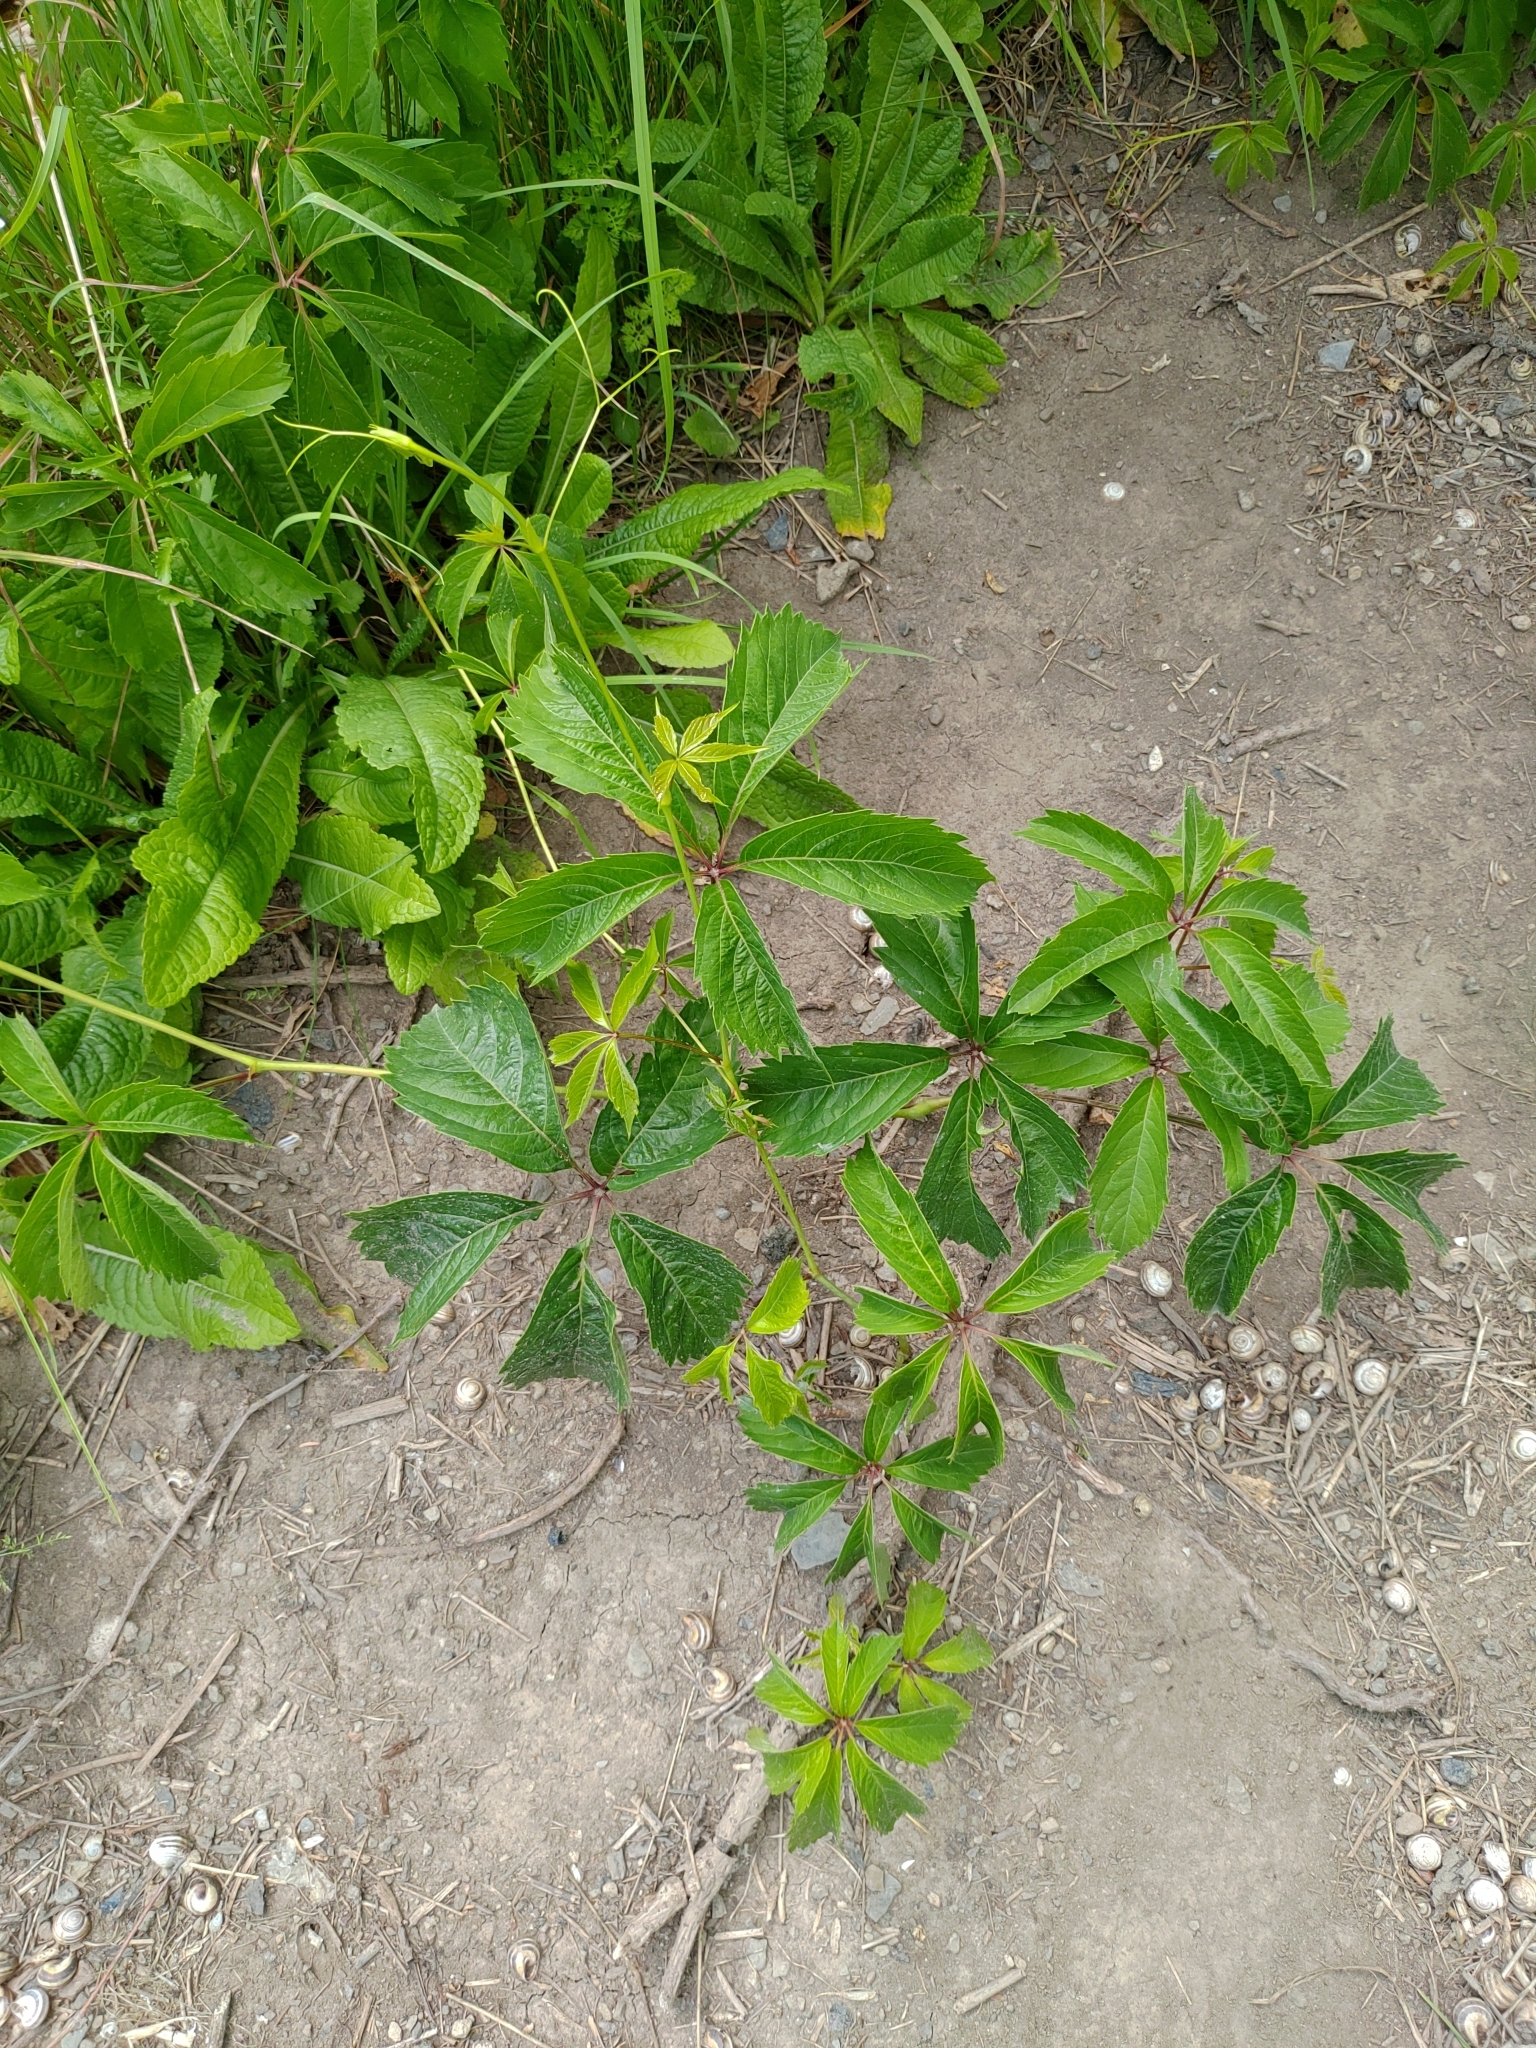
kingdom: Plantae
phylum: Tracheophyta
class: Magnoliopsida
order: Vitales
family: Vitaceae
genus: Parthenocissus
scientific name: Parthenocissus quinquefolia
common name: Virginia-creeper
